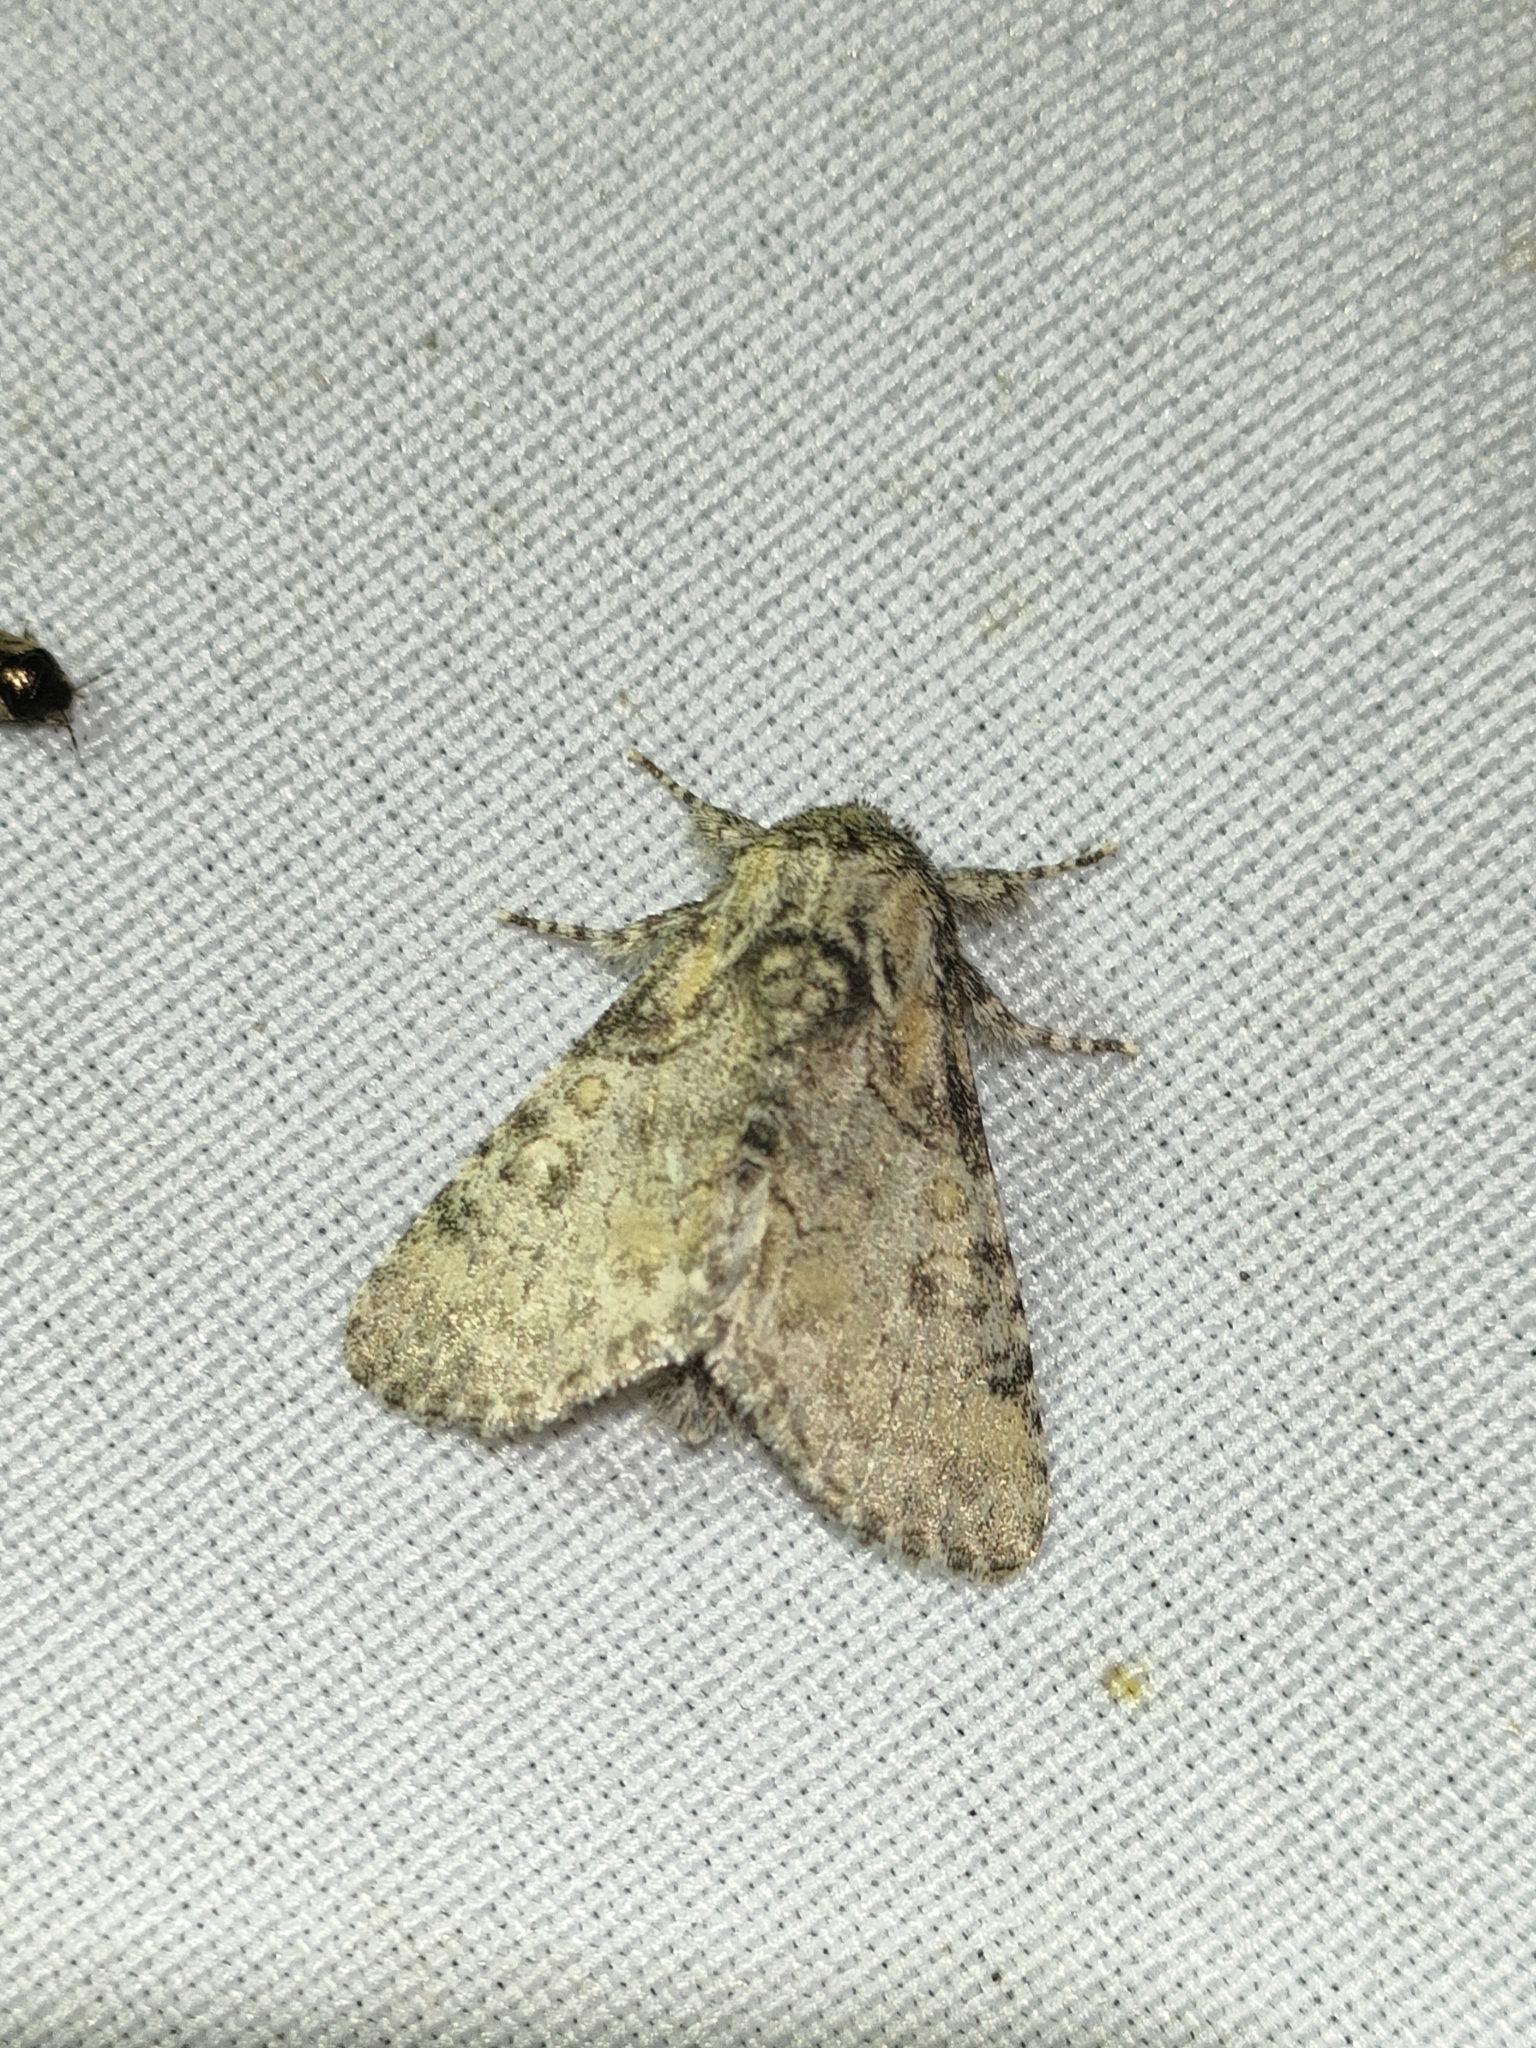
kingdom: Animalia
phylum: Arthropoda
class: Insecta
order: Lepidoptera
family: Noctuidae
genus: Raphia
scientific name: Raphia hybris
